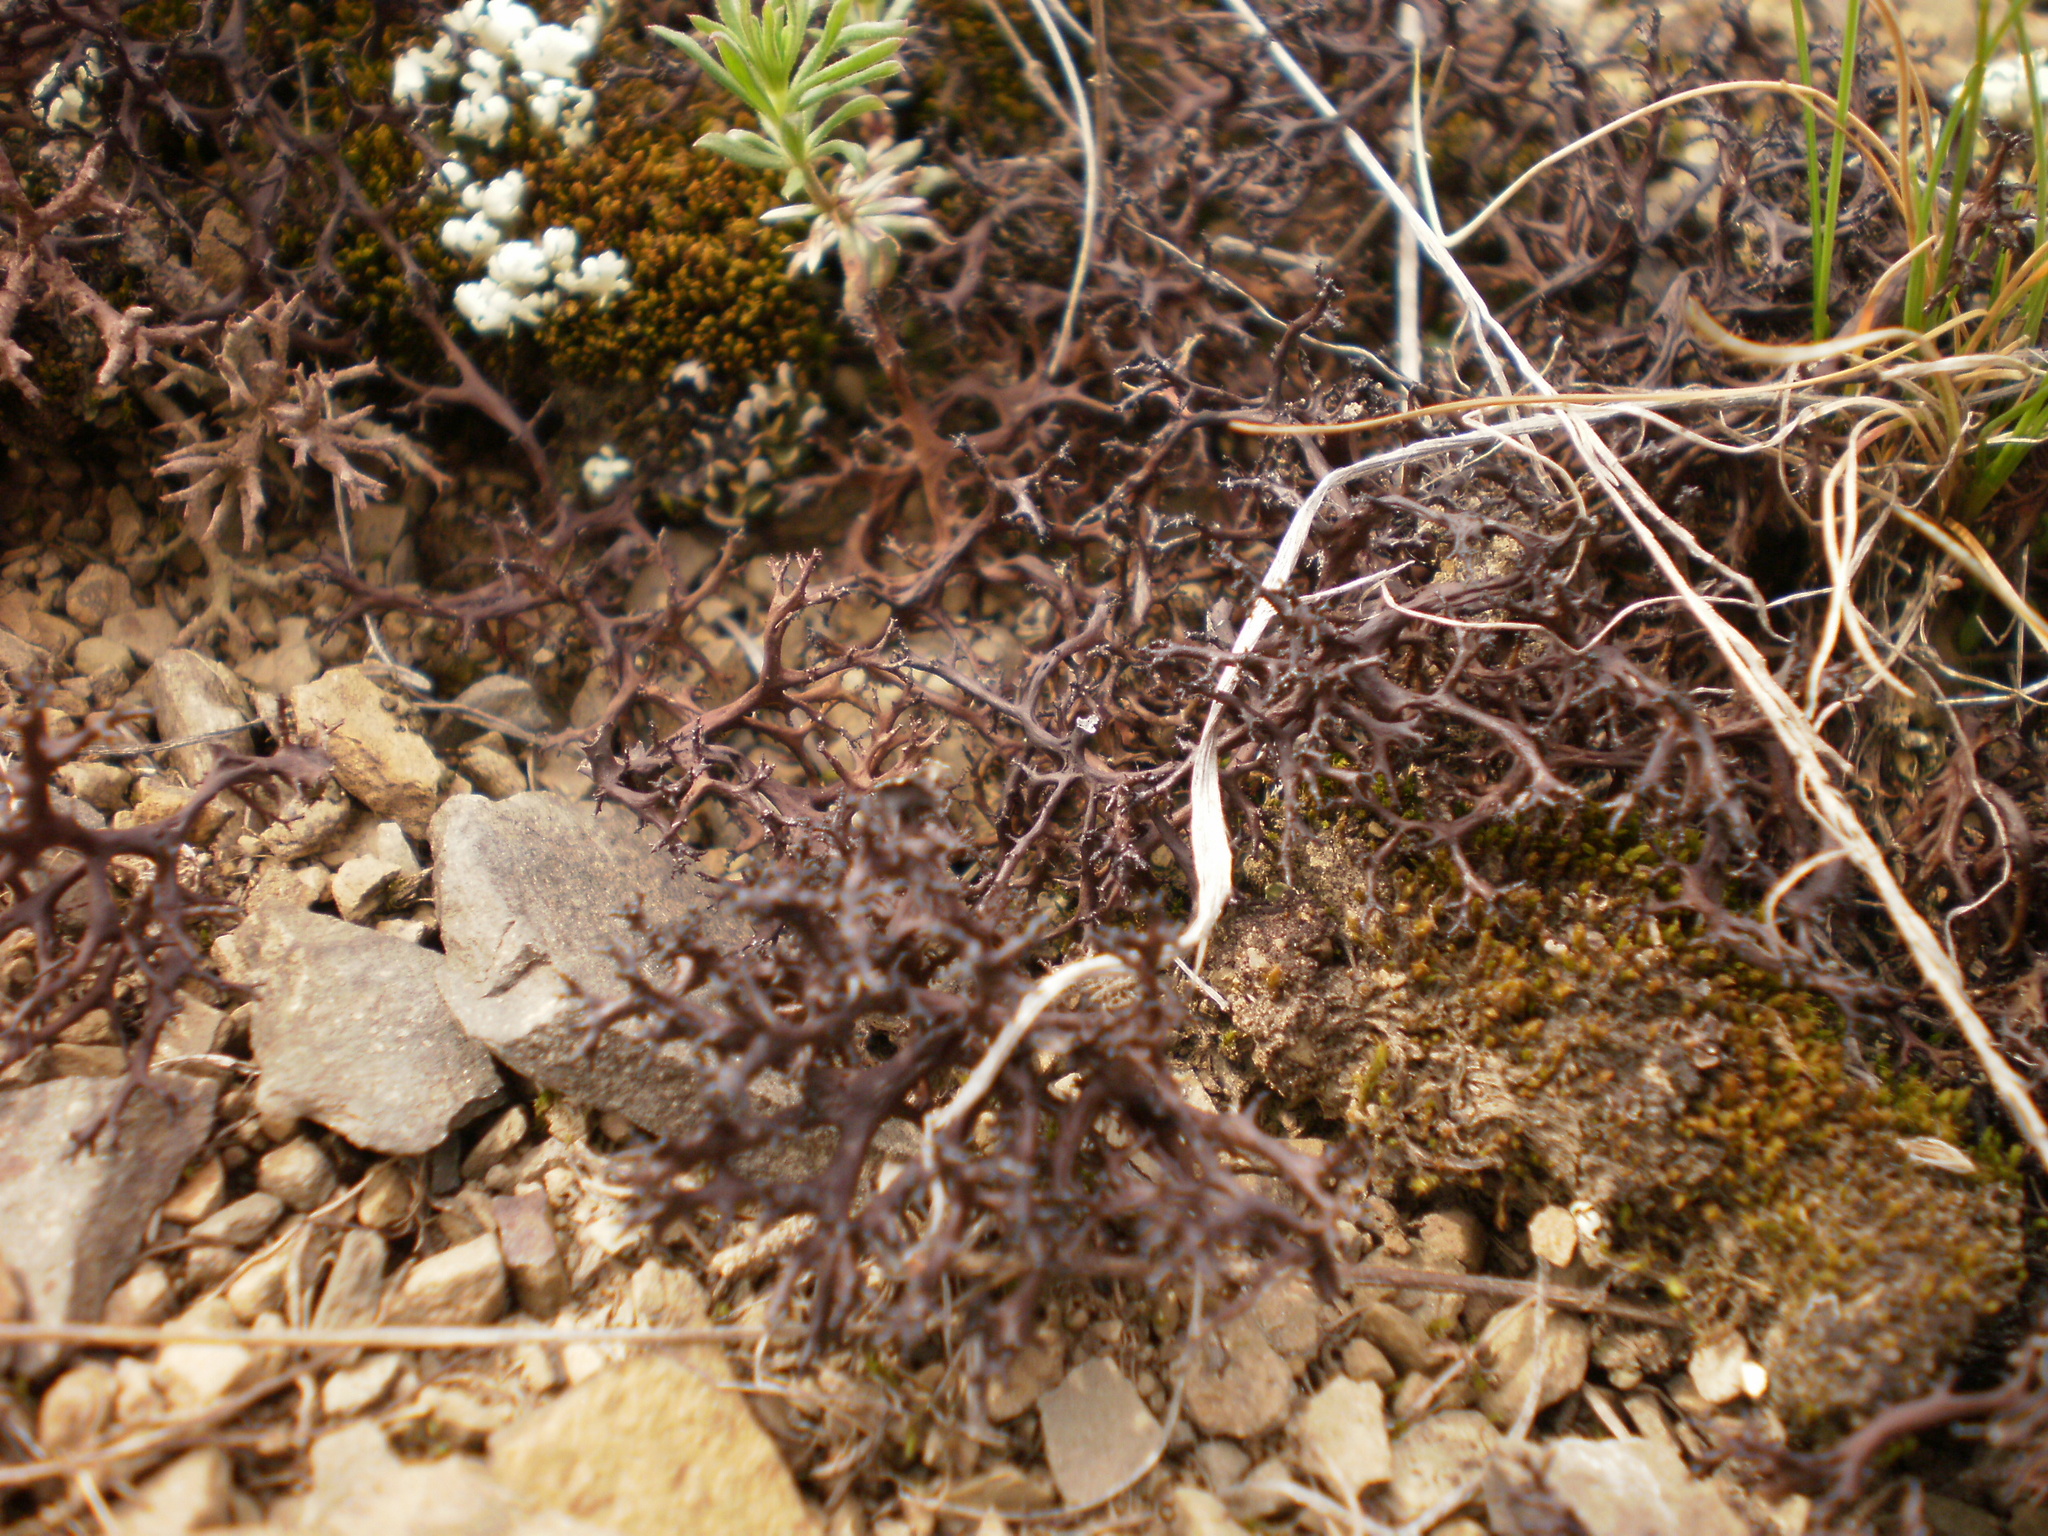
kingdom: Fungi
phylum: Ascomycota
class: Lecanoromycetes
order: Lecanorales
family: Parmeliaceae
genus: Cetraria
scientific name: Cetraria aculeata
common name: Spiny heath lichen
